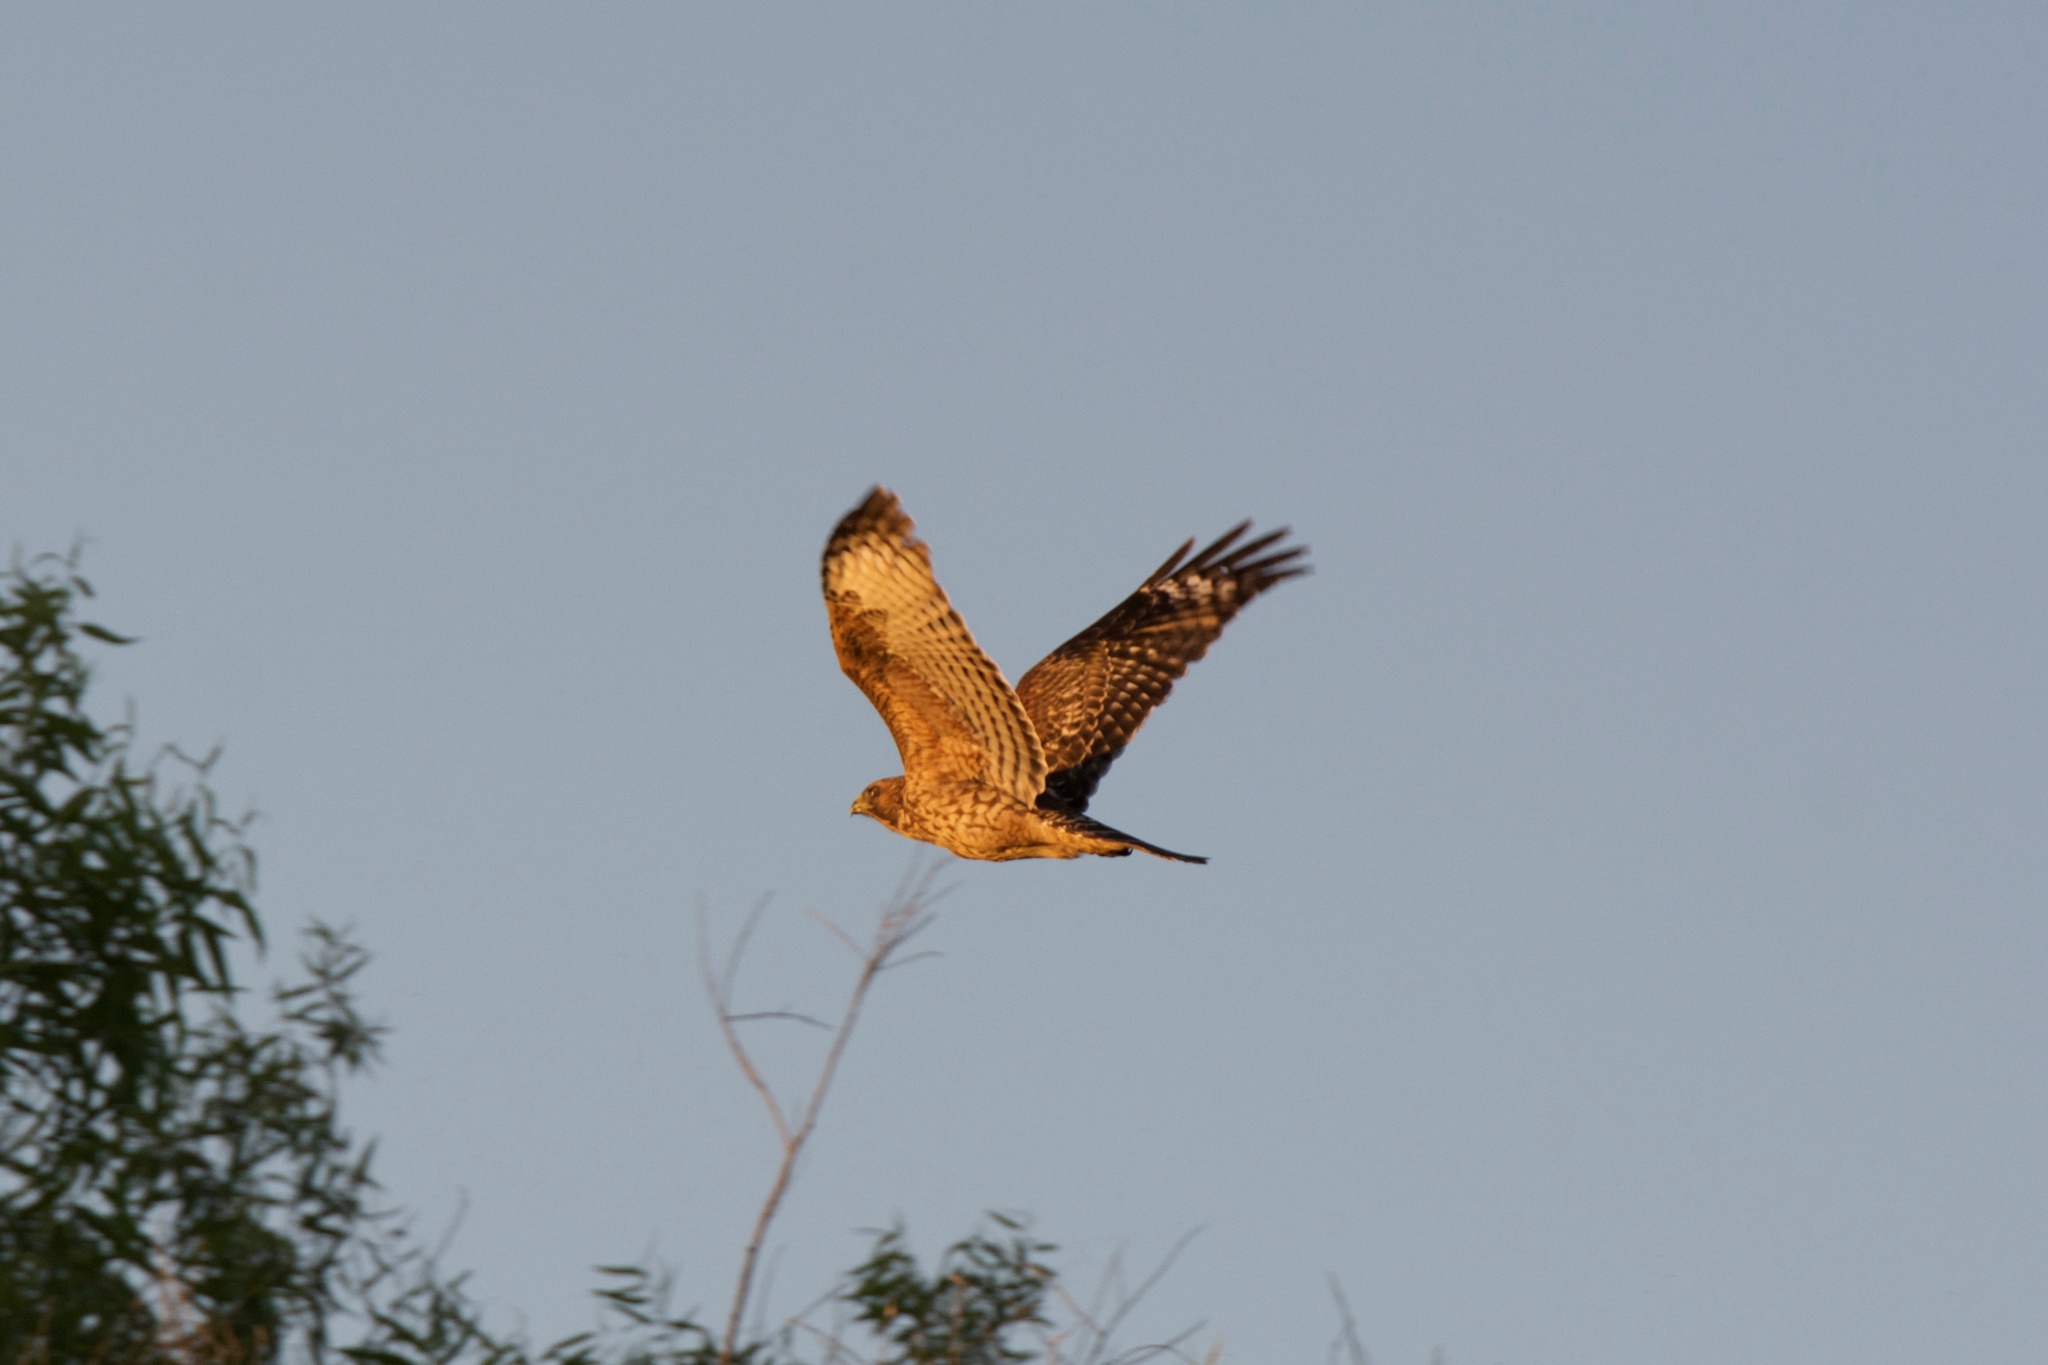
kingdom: Animalia
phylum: Chordata
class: Aves
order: Accipitriformes
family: Accipitridae
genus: Buteo
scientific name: Buteo lineatus
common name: Red-shouldered hawk
